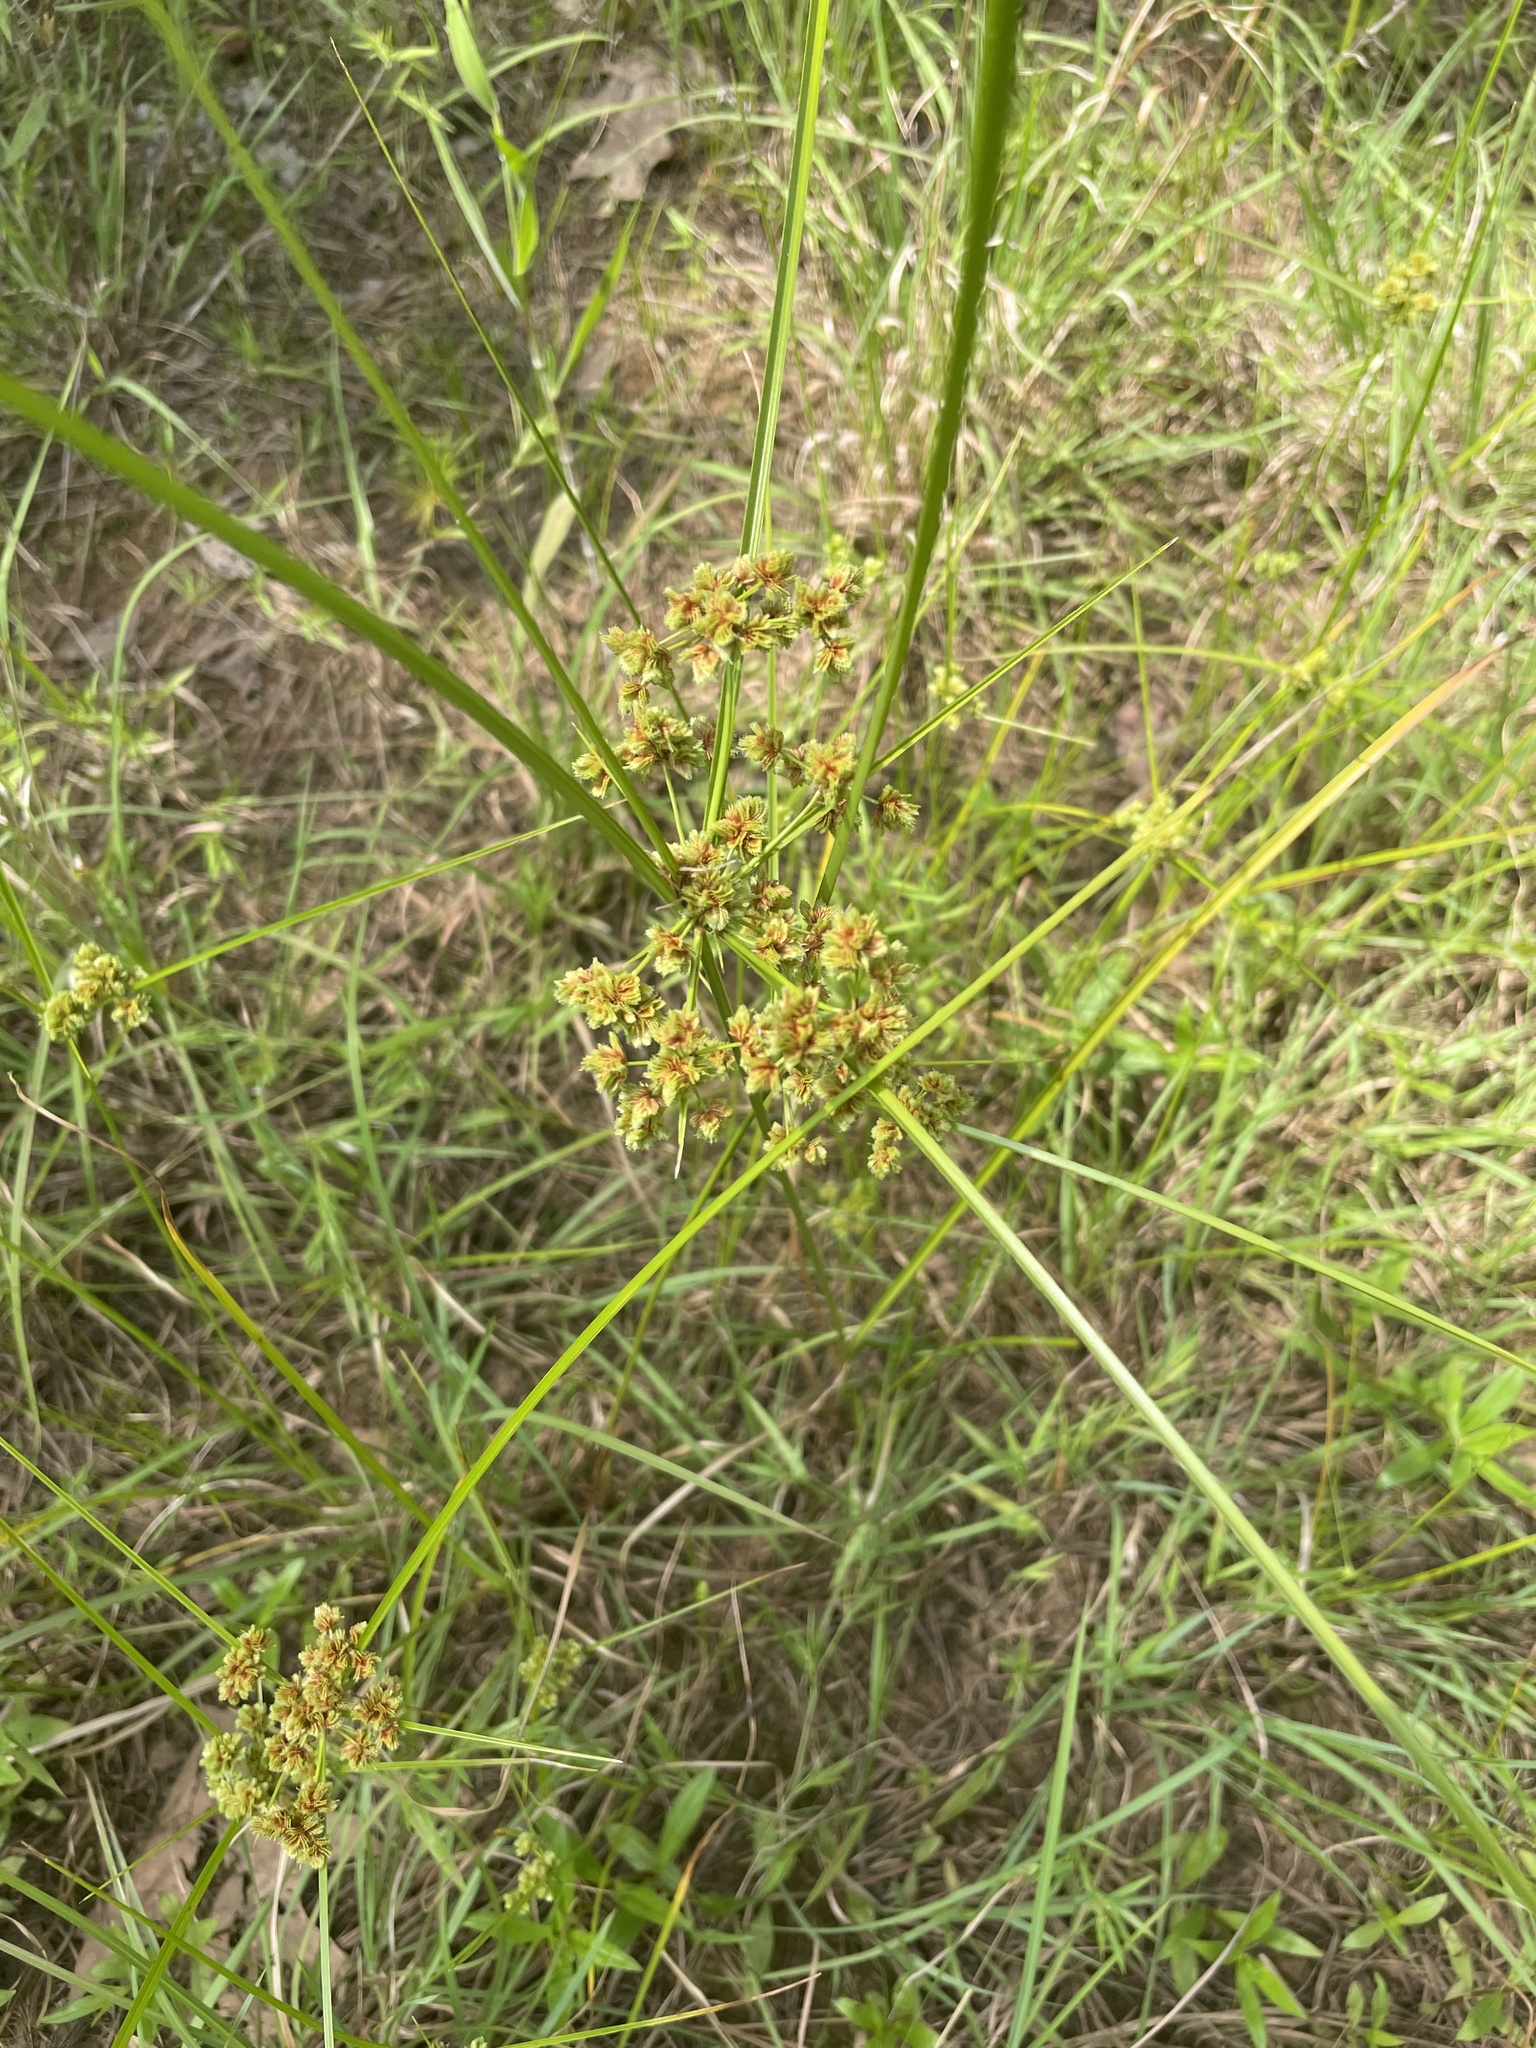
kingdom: Plantae
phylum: Tracheophyta
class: Liliopsida
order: Poales
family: Cyperaceae
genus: Cyperus
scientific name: Cyperus pseudovegetus
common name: Marsh flat sedge
